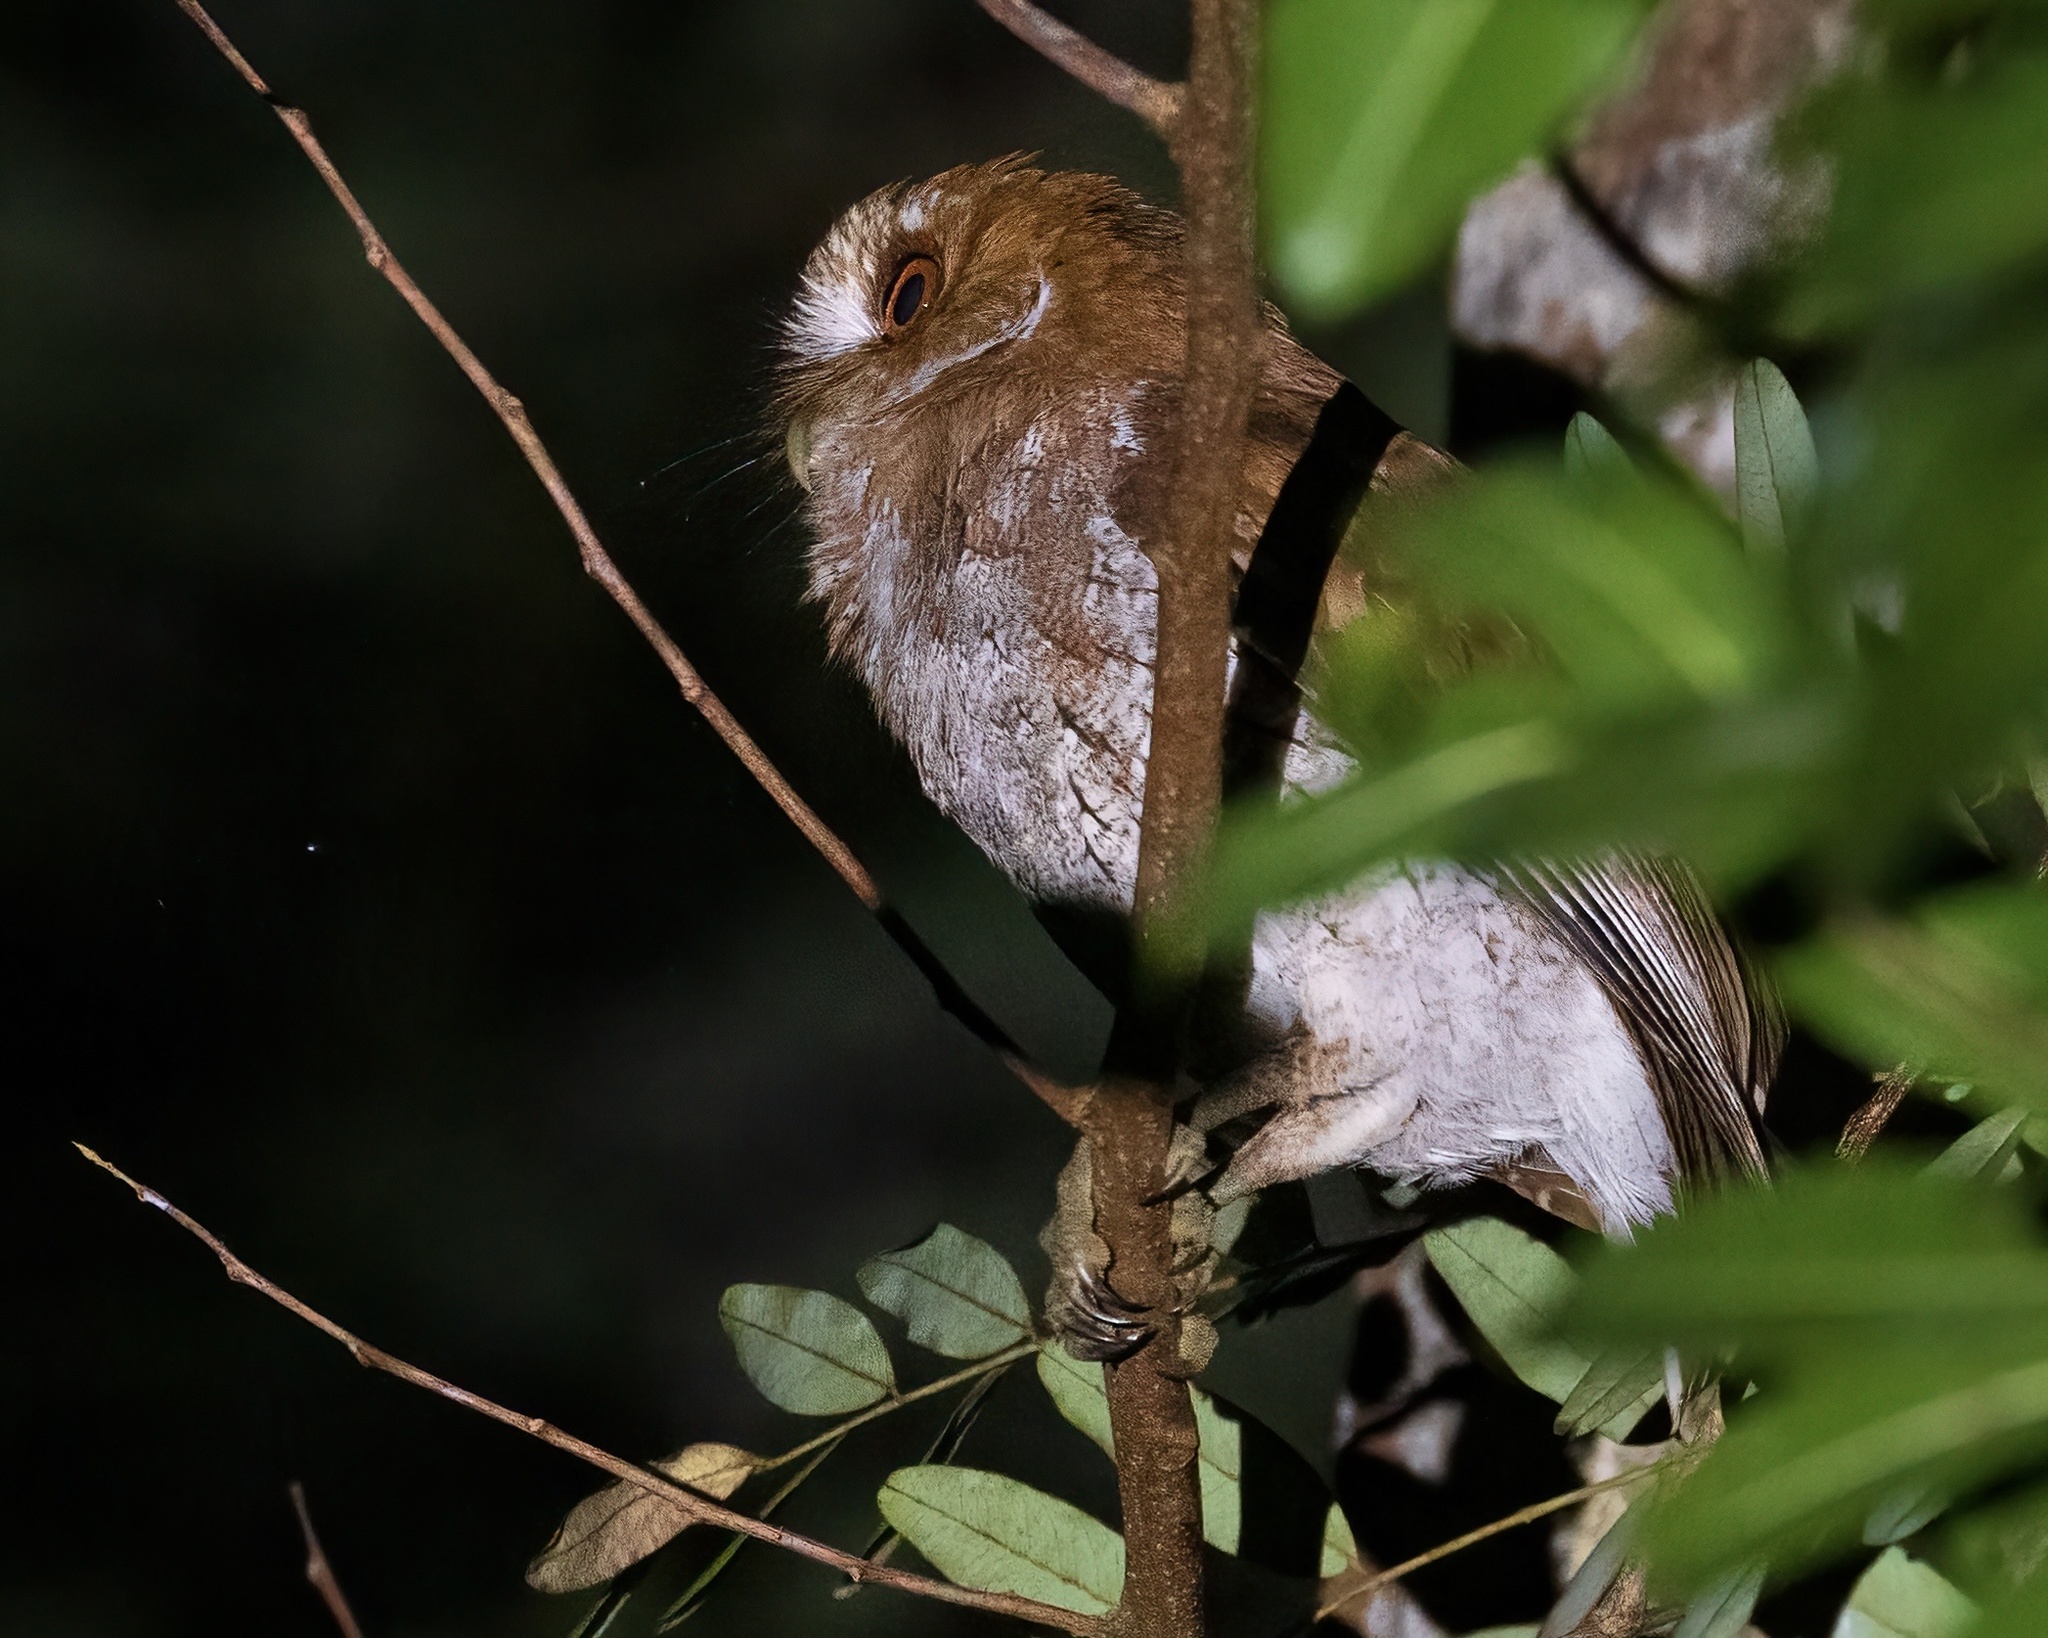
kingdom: Animalia
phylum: Chordata
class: Aves
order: Strigiformes
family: Strigidae
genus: Megascops
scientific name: Megascops nudipes
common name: Puerto rican screech-owl
